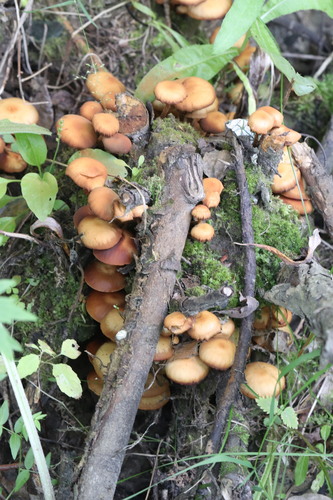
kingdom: Fungi
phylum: Basidiomycota
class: Agaricomycetes
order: Agaricales
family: Strophariaceae
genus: Kuehneromyces
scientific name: Kuehneromyces mutabilis
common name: Sheathed woodtuft
